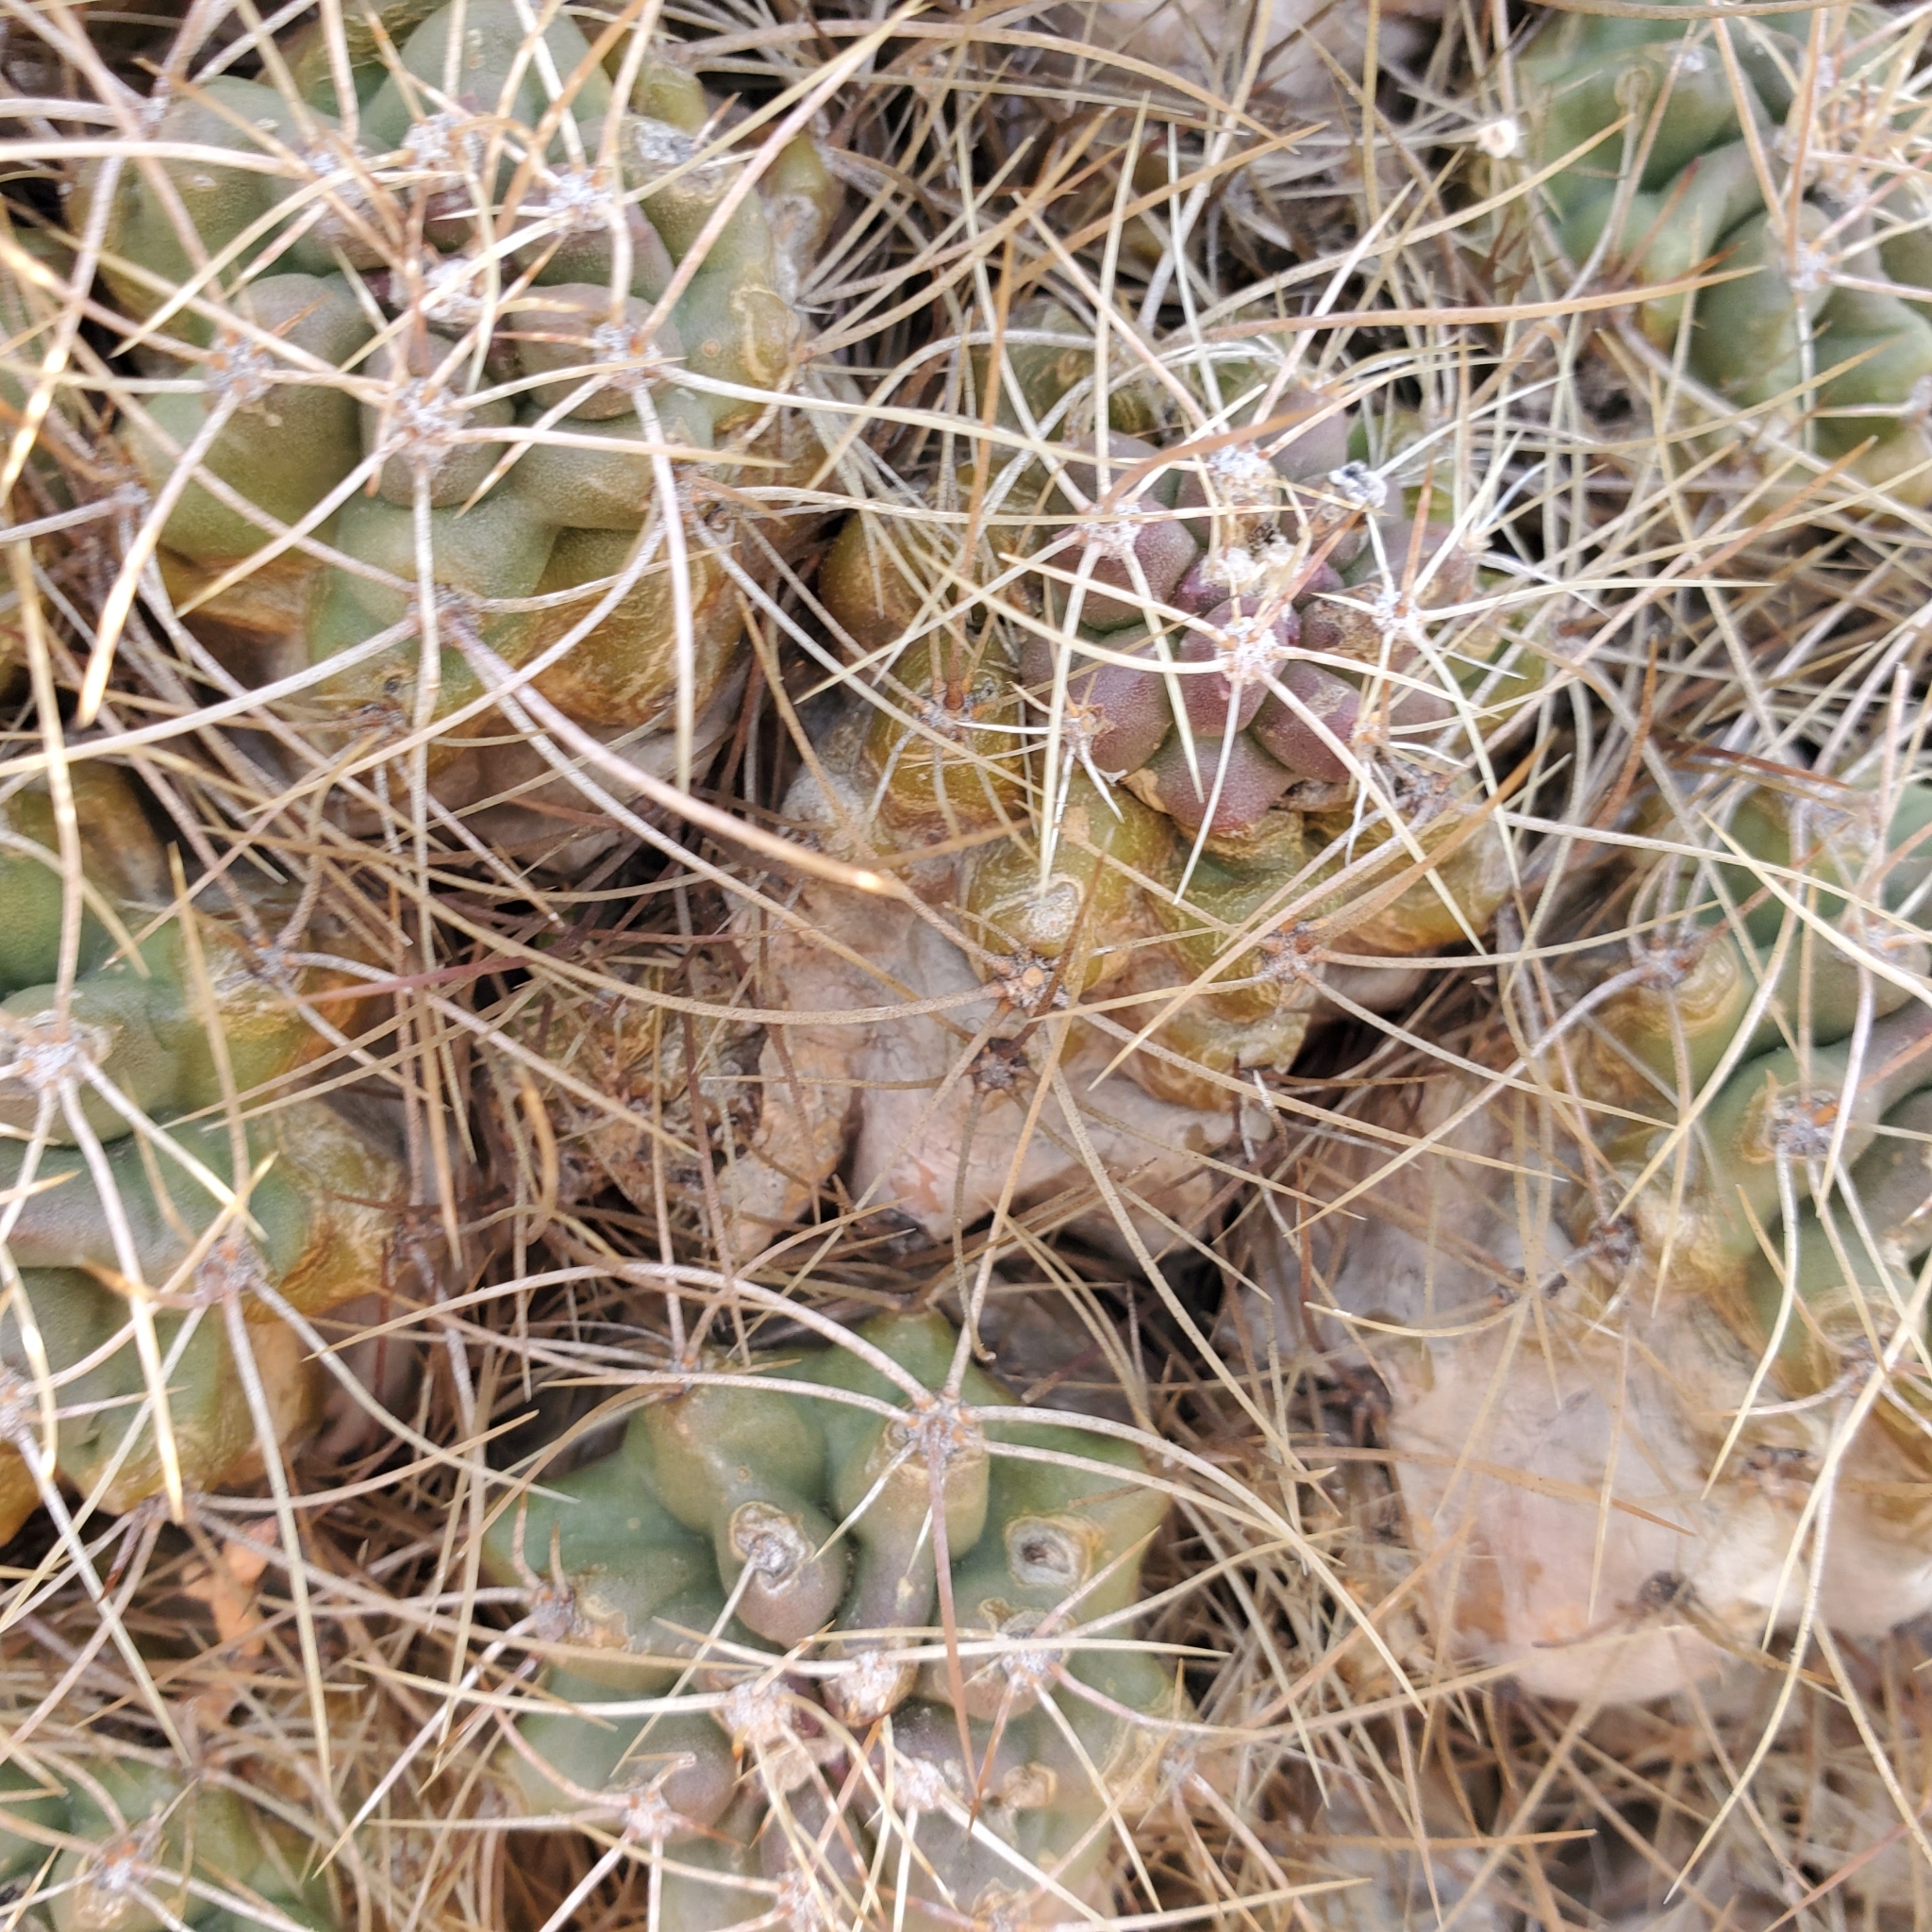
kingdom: Plantae
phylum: Tracheophyta
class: Magnoliopsida
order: Caryophyllales
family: Cactaceae
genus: Echinocereus
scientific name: Echinocereus triglochidiatus
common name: Claretcup hedgehog
